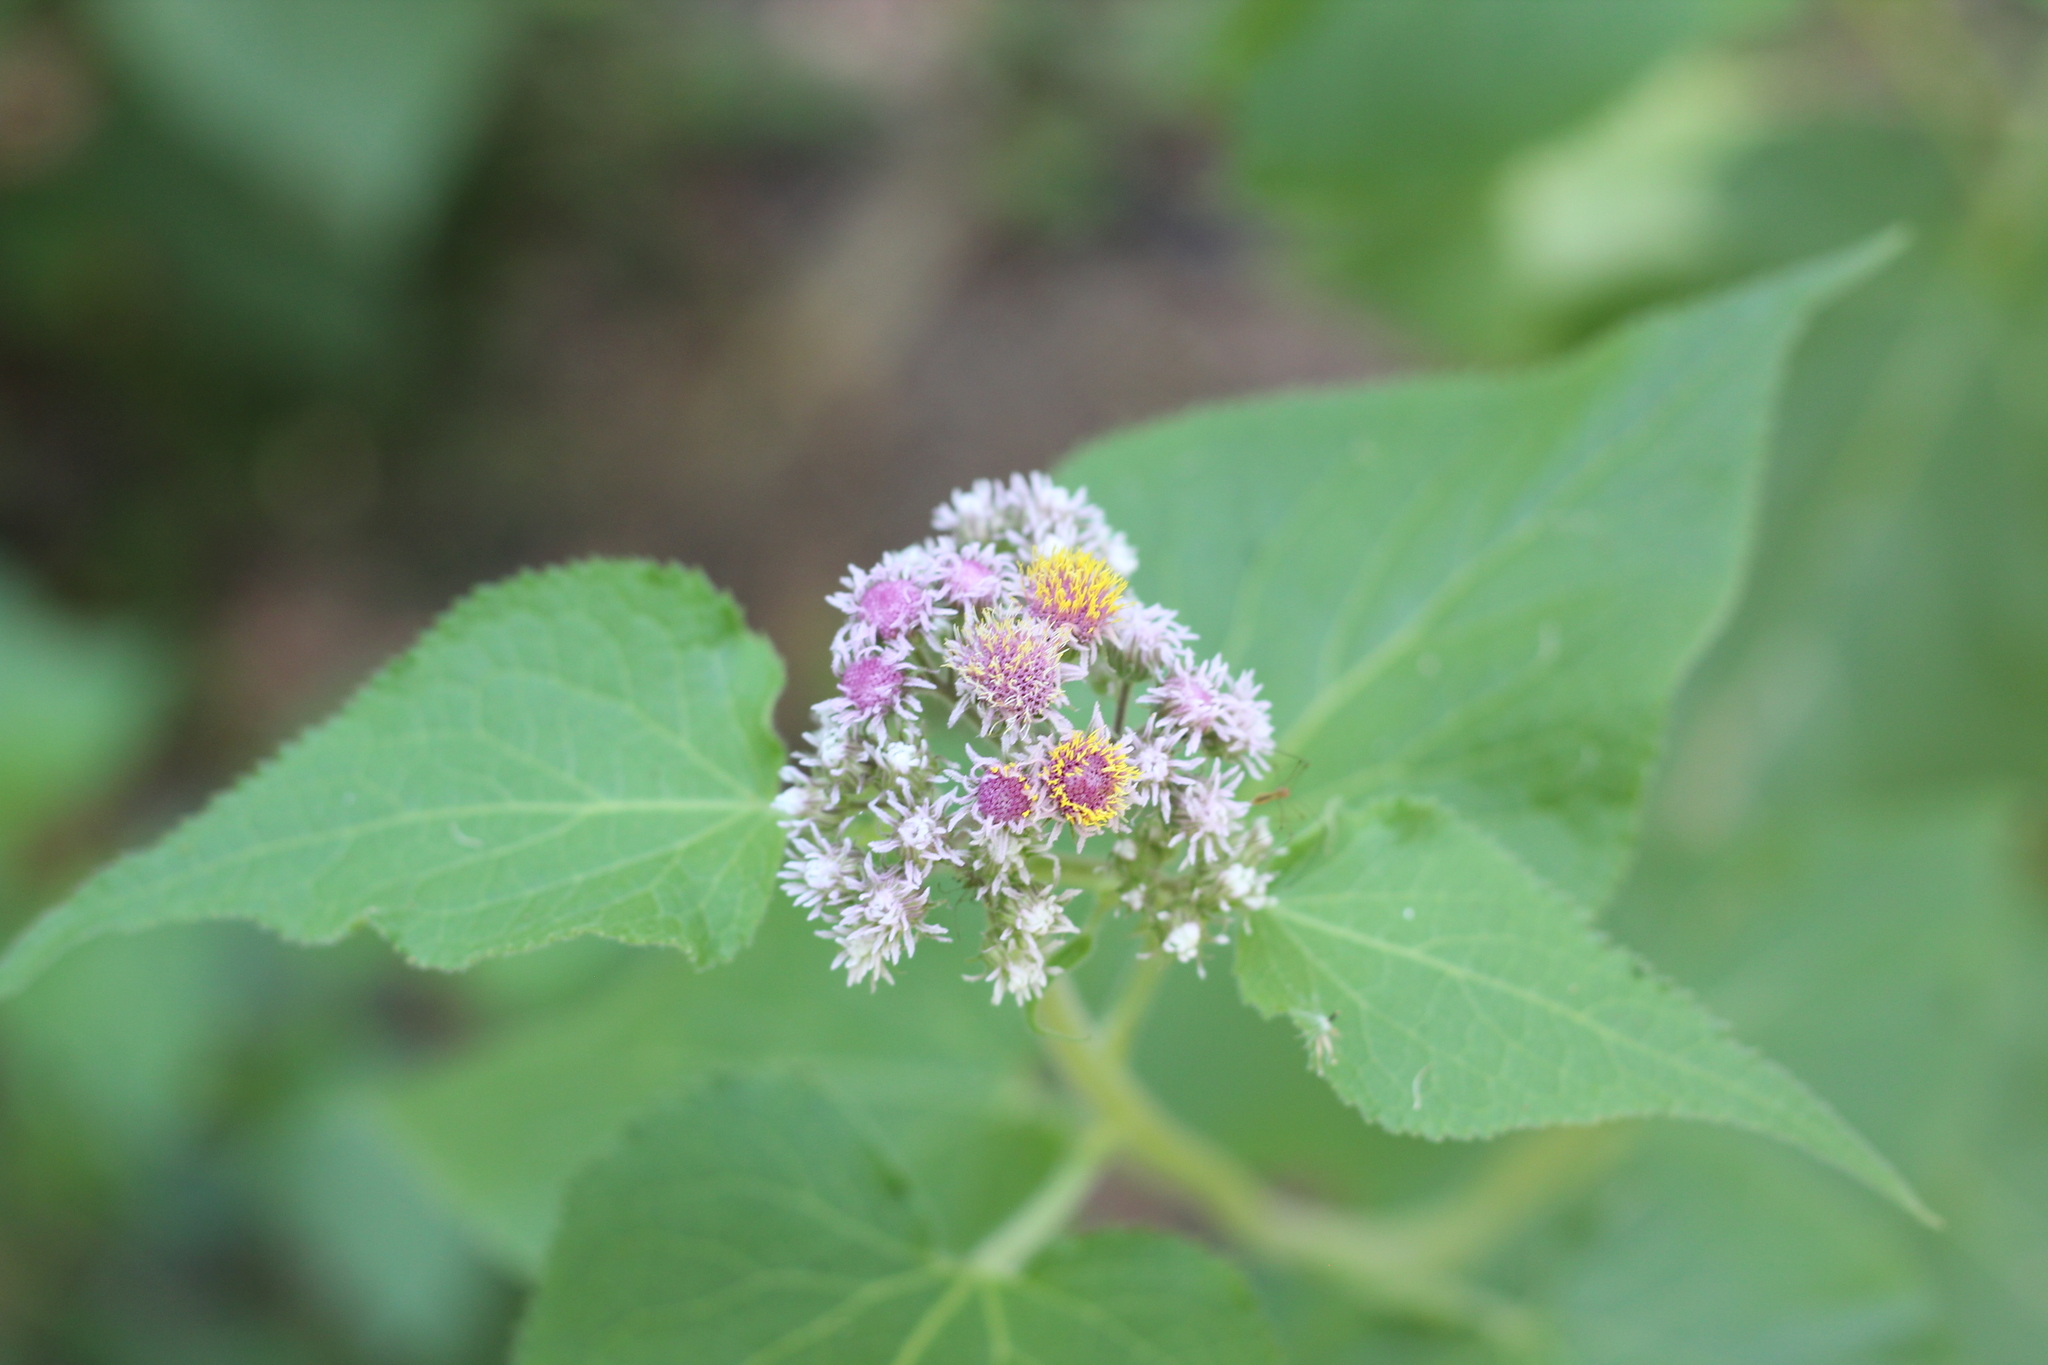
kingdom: Plantae
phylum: Tracheophyta
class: Magnoliopsida
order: Asterales
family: Asteraceae
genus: Urolepis
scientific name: Urolepis hecatantha
